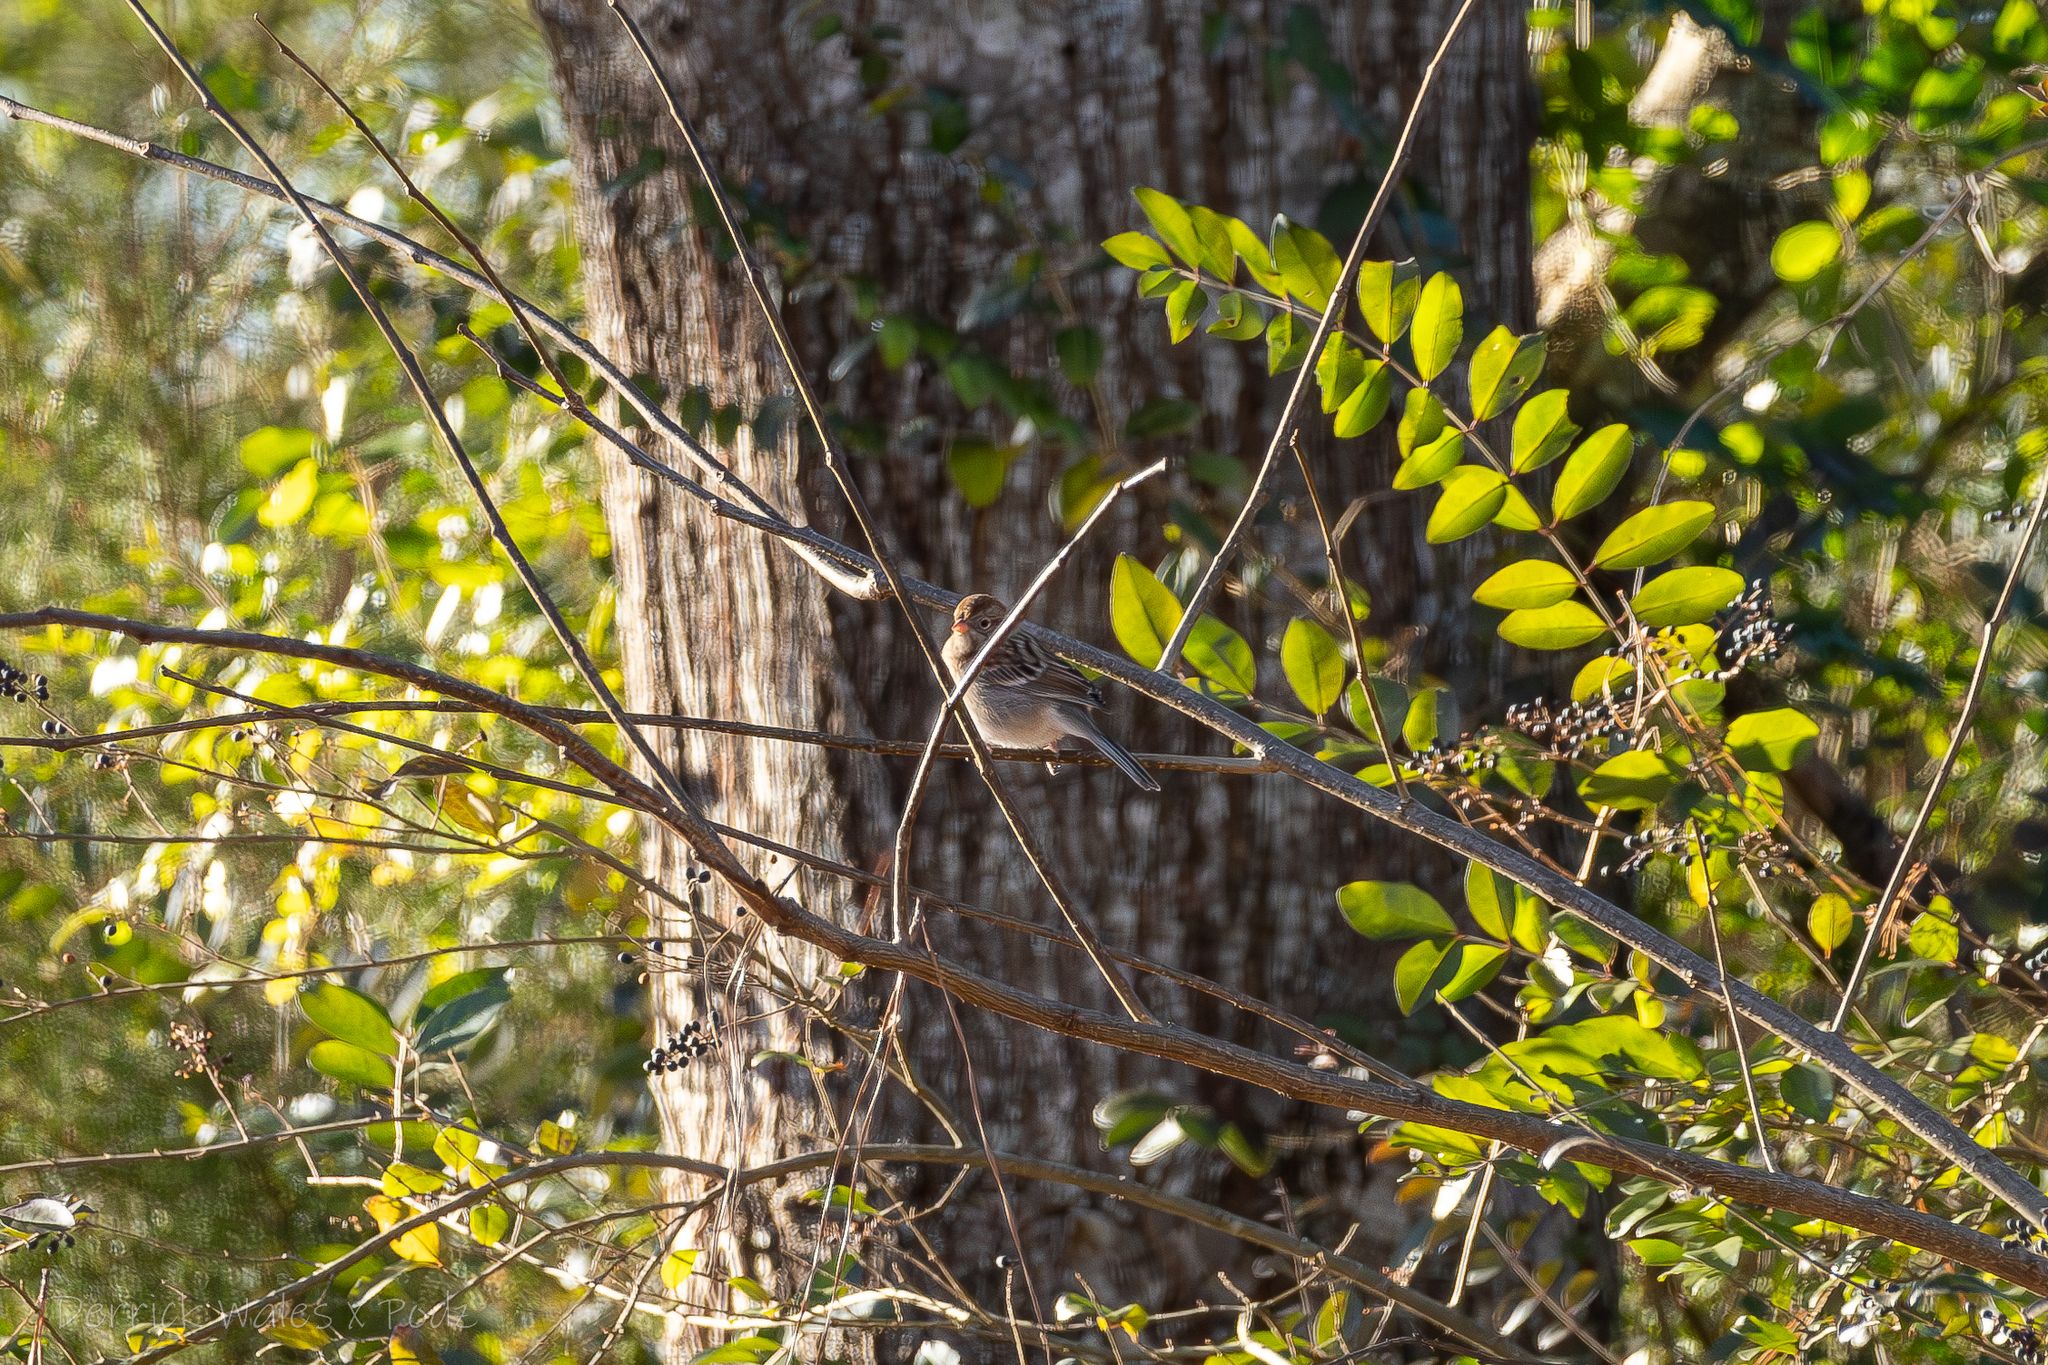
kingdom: Animalia
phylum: Chordata
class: Aves
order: Passeriformes
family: Passerellidae
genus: Spizella
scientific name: Spizella pusilla
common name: Field sparrow
